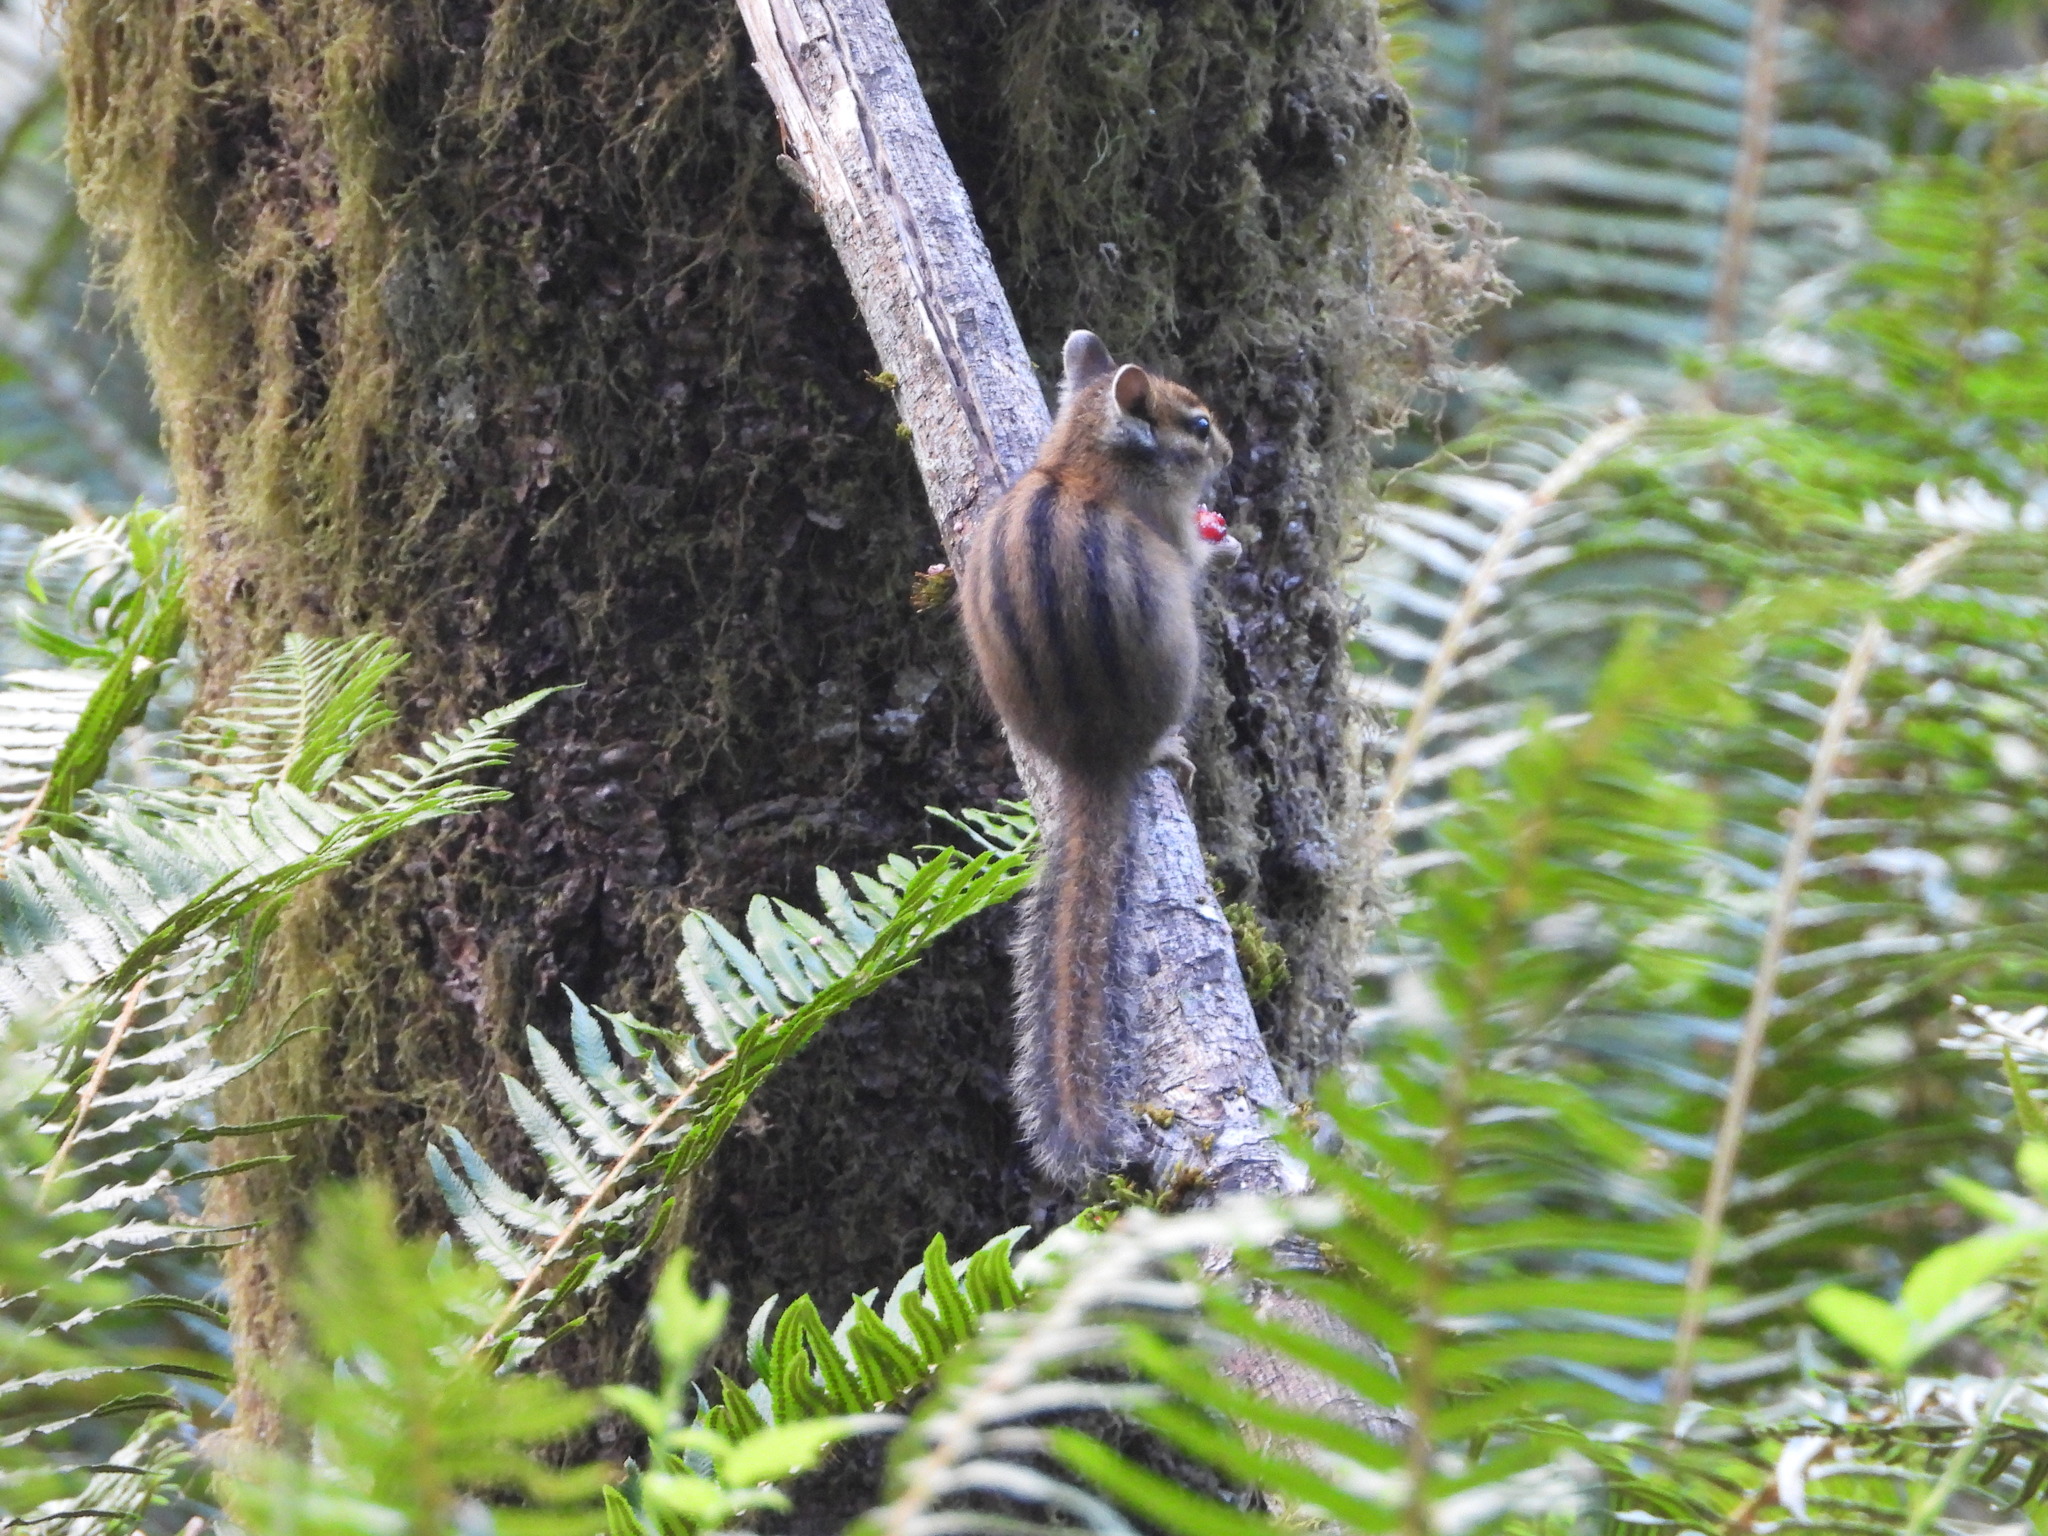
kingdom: Animalia
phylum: Chordata
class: Mammalia
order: Rodentia
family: Sciuridae
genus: Tamias
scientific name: Tamias townsendii
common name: Townsend's chipmunk
